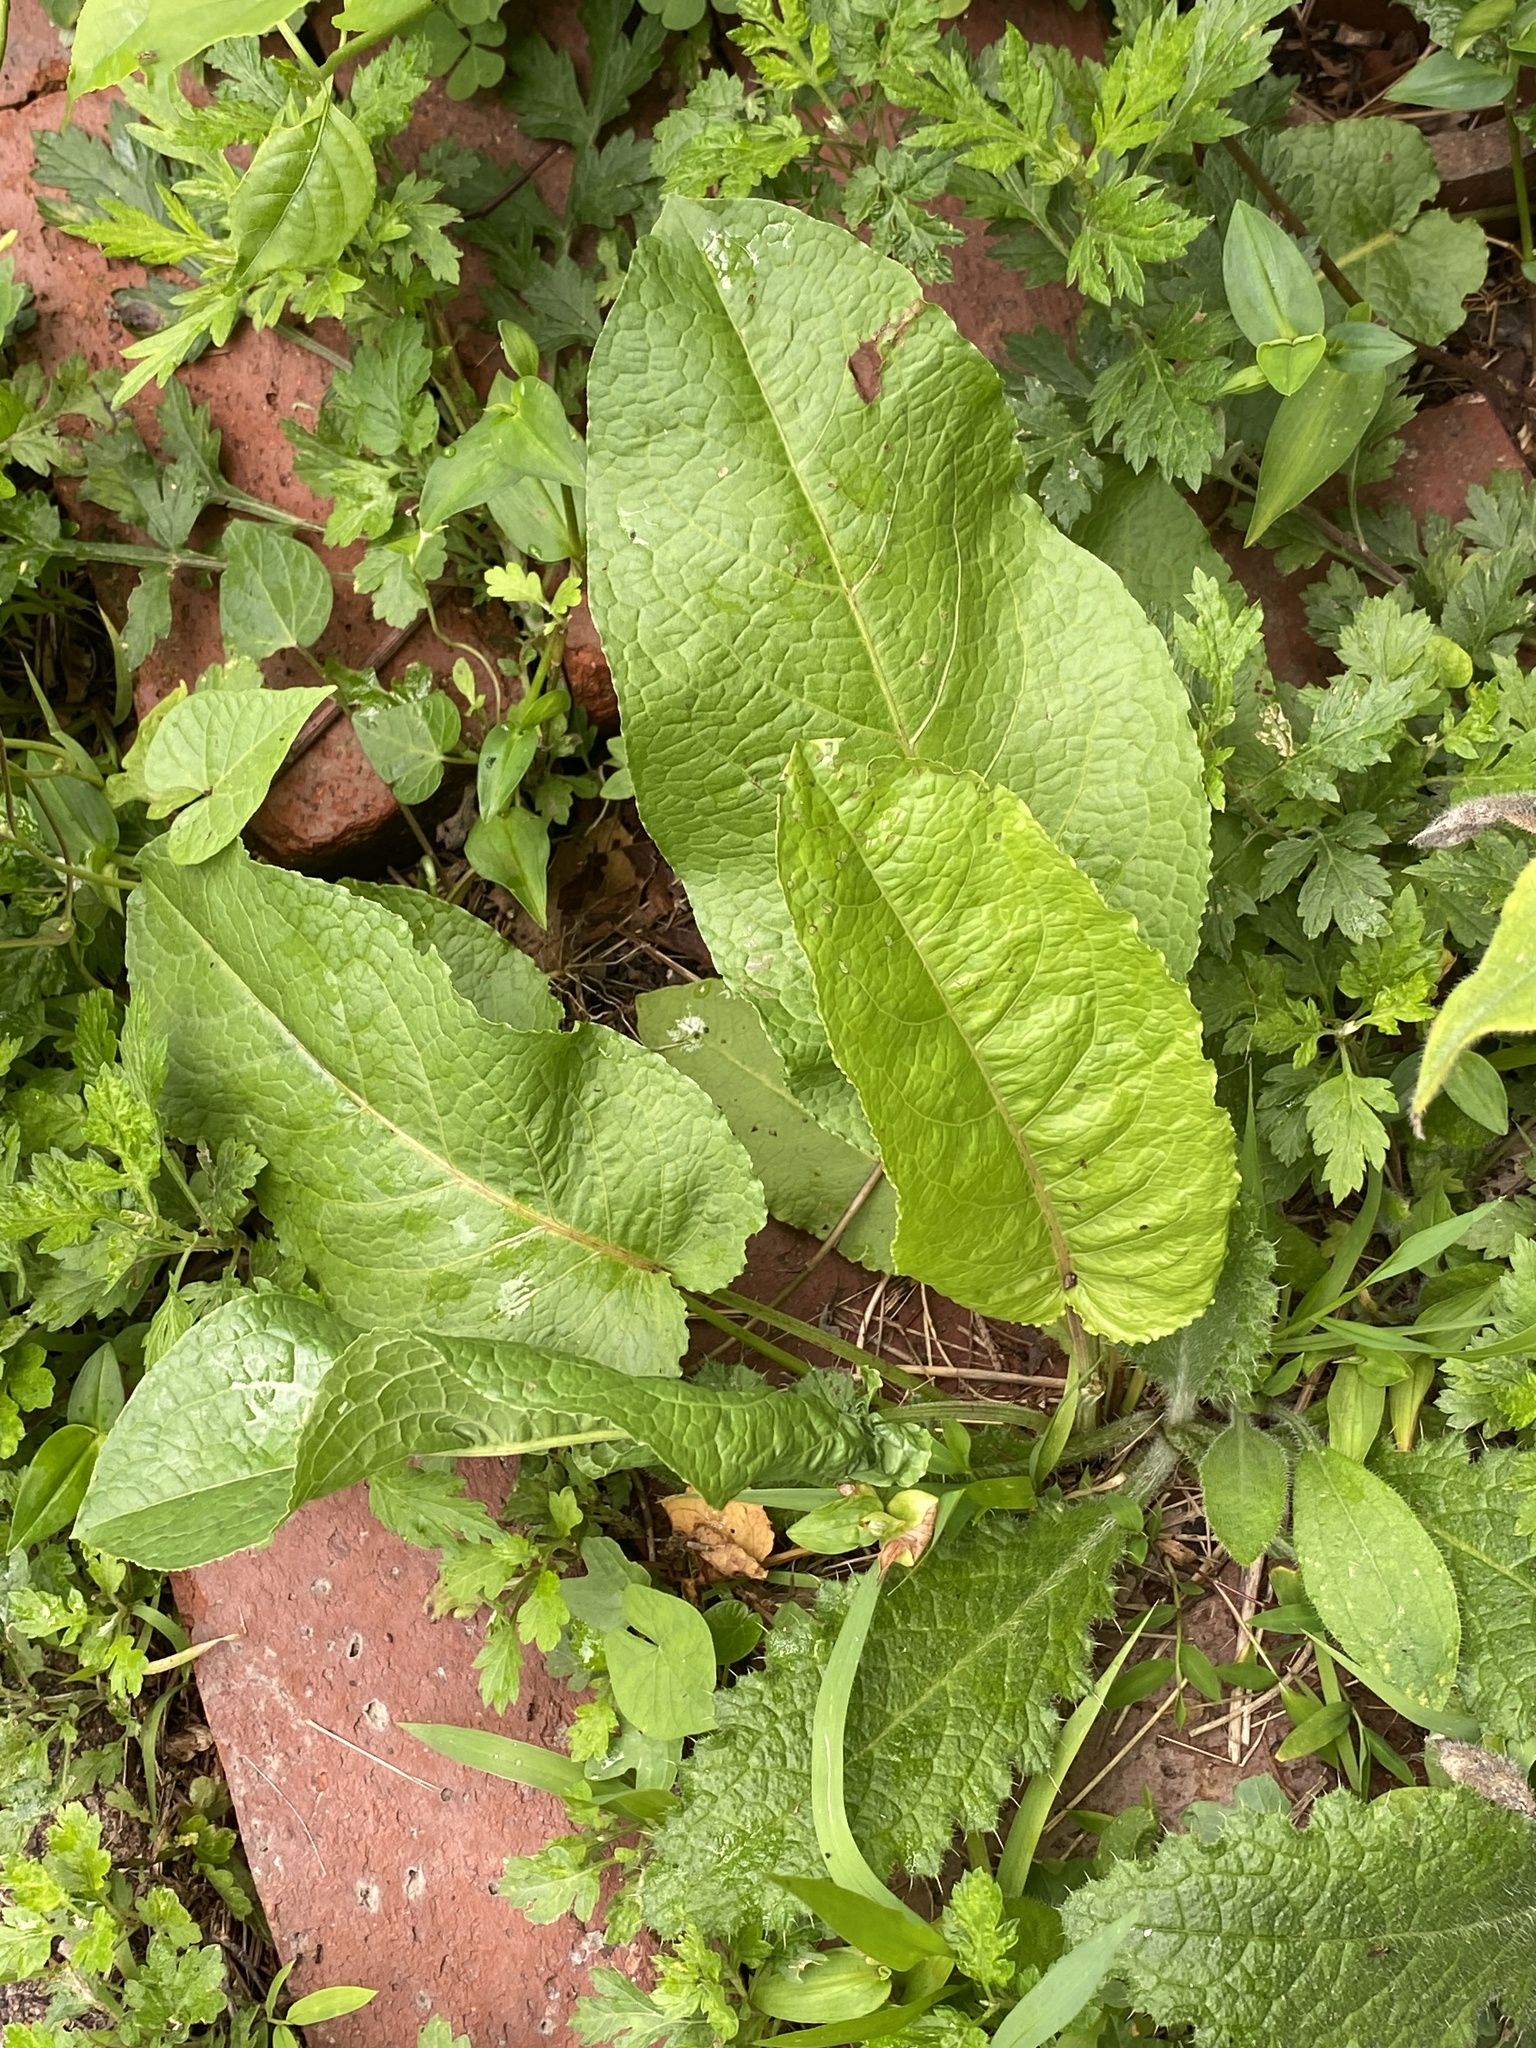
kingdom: Plantae
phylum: Tracheophyta
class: Magnoliopsida
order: Caryophyllales
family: Polygonaceae
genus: Rumex
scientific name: Rumex obtusifolius
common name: Bitter dock
